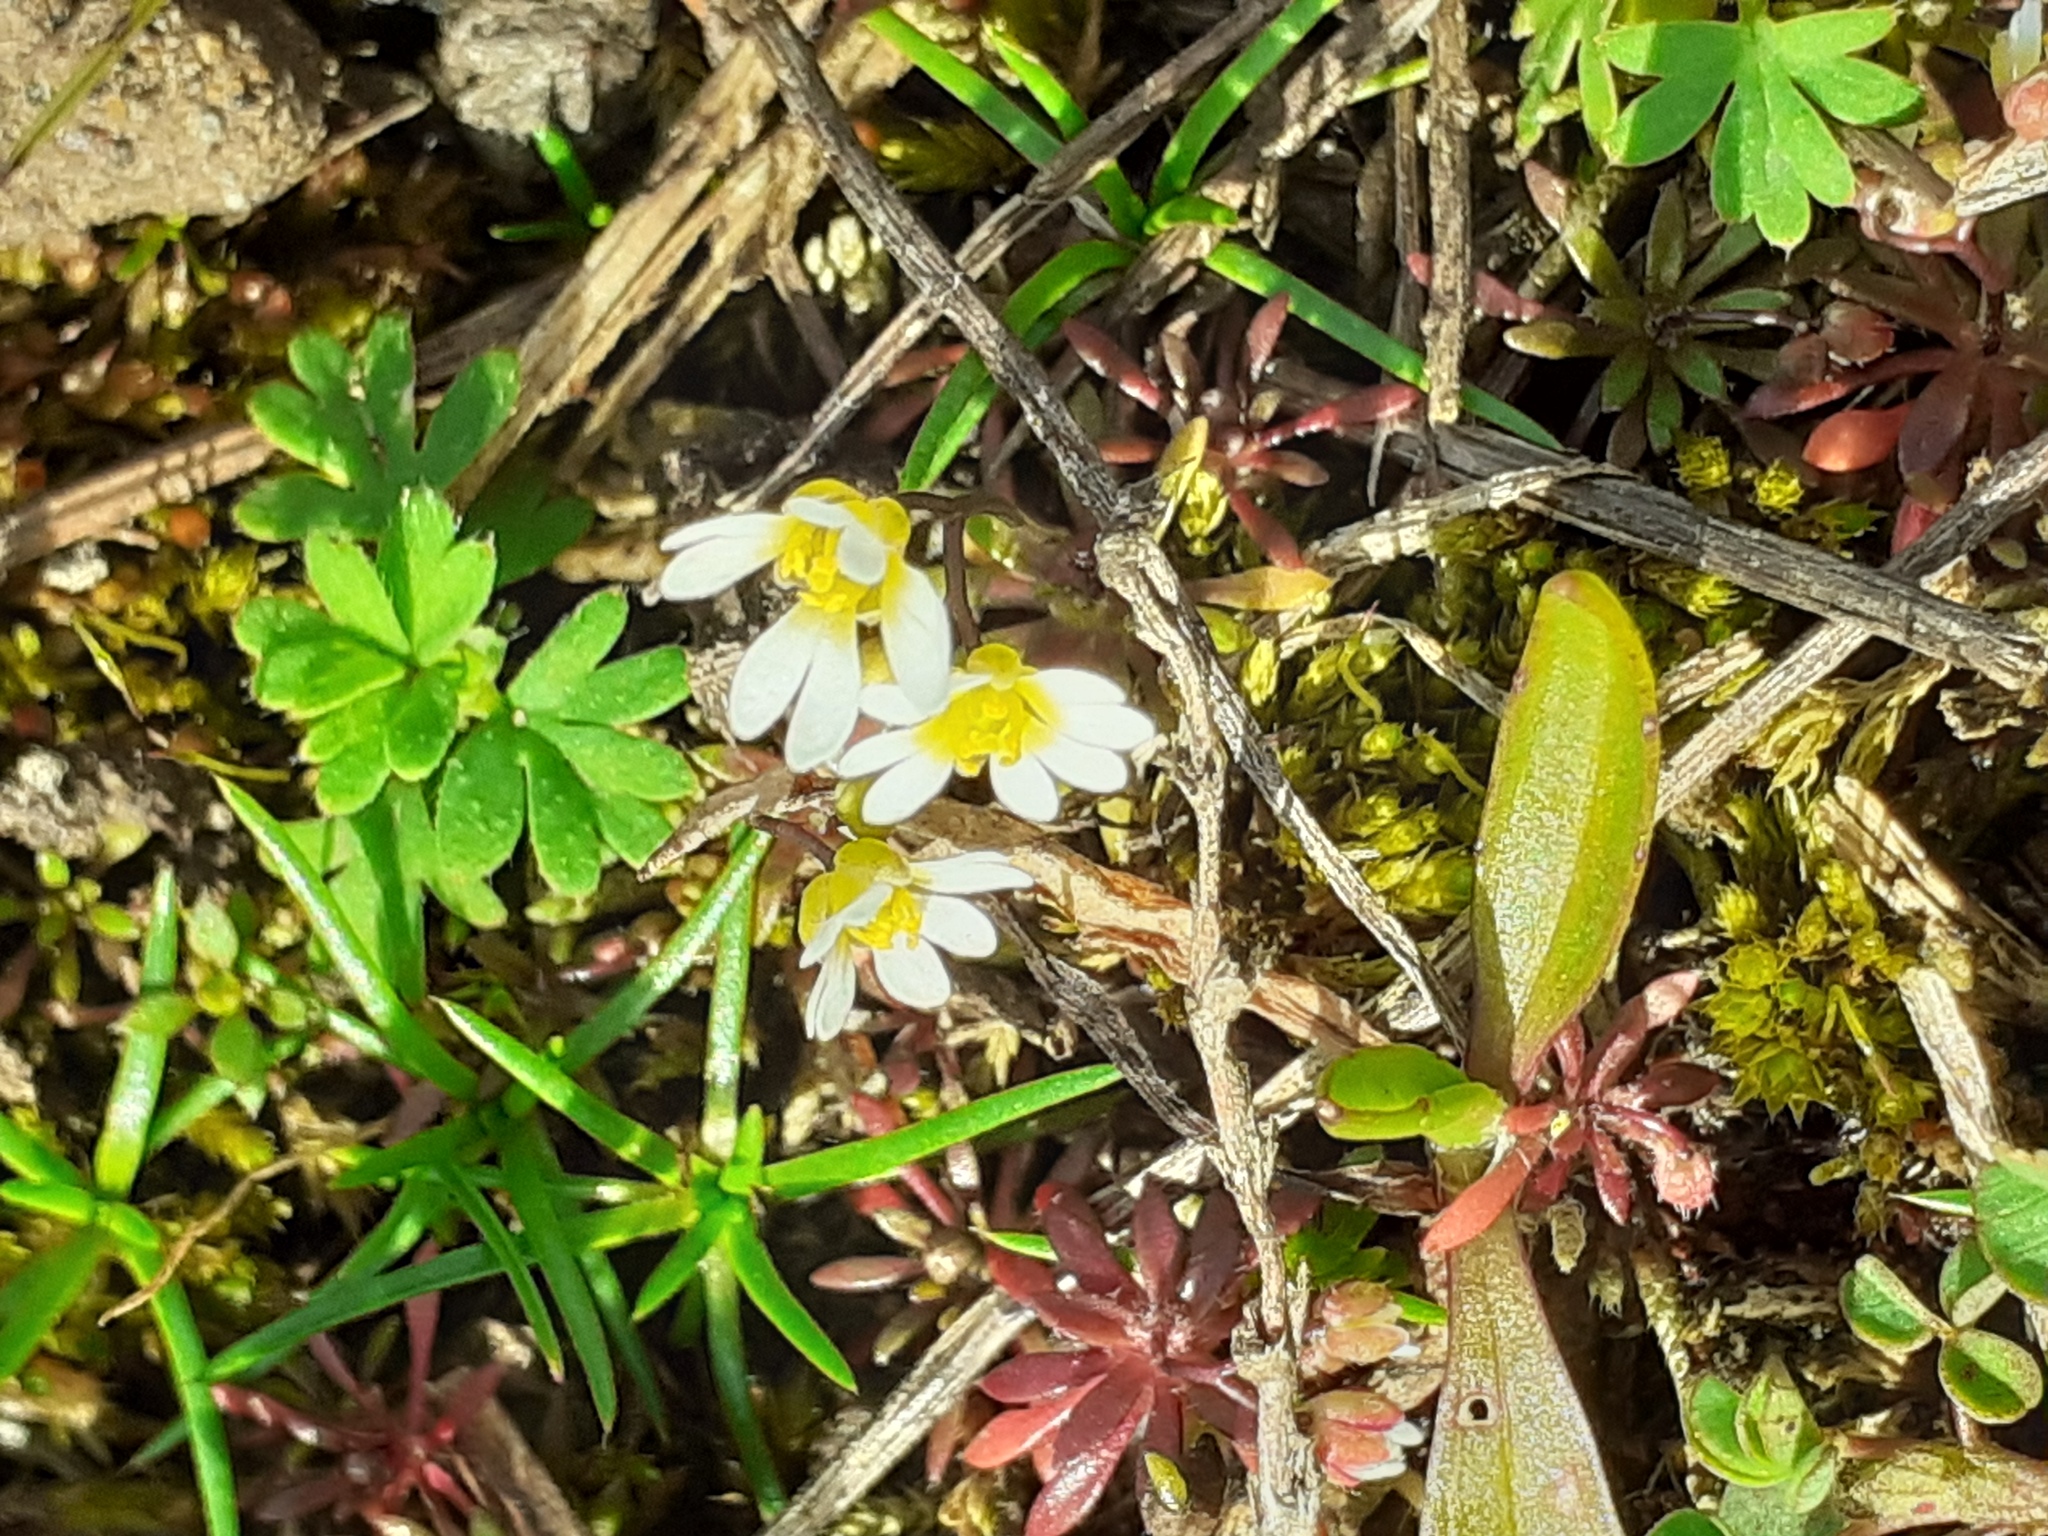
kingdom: Plantae
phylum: Tracheophyta
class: Magnoliopsida
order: Brassicales
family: Brassicaceae
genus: Draba
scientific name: Draba verna
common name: Spring draba
